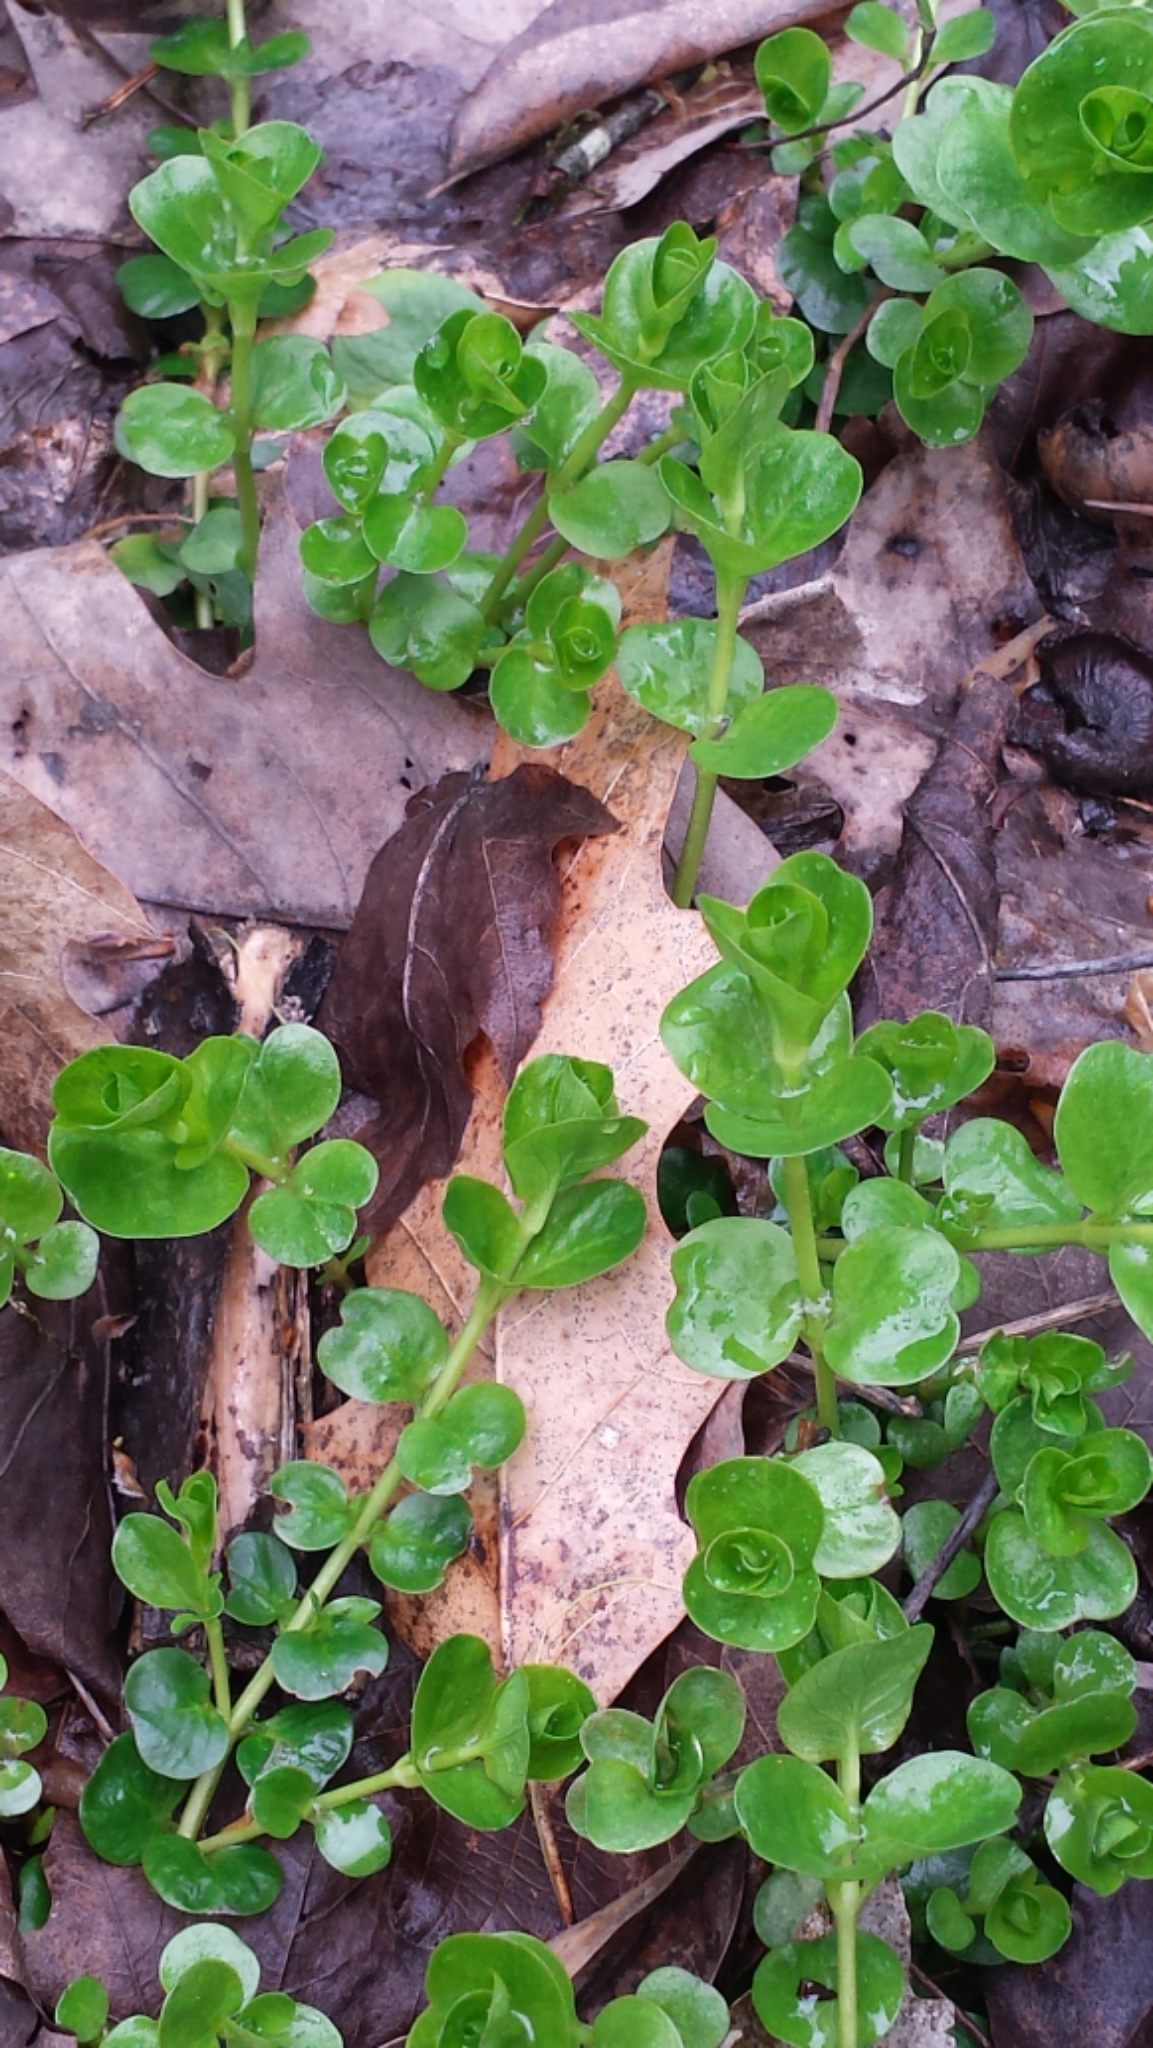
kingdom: Plantae
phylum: Tracheophyta
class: Magnoliopsida
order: Ericales
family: Primulaceae
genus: Lysimachia
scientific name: Lysimachia nummularia
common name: Moneywort
